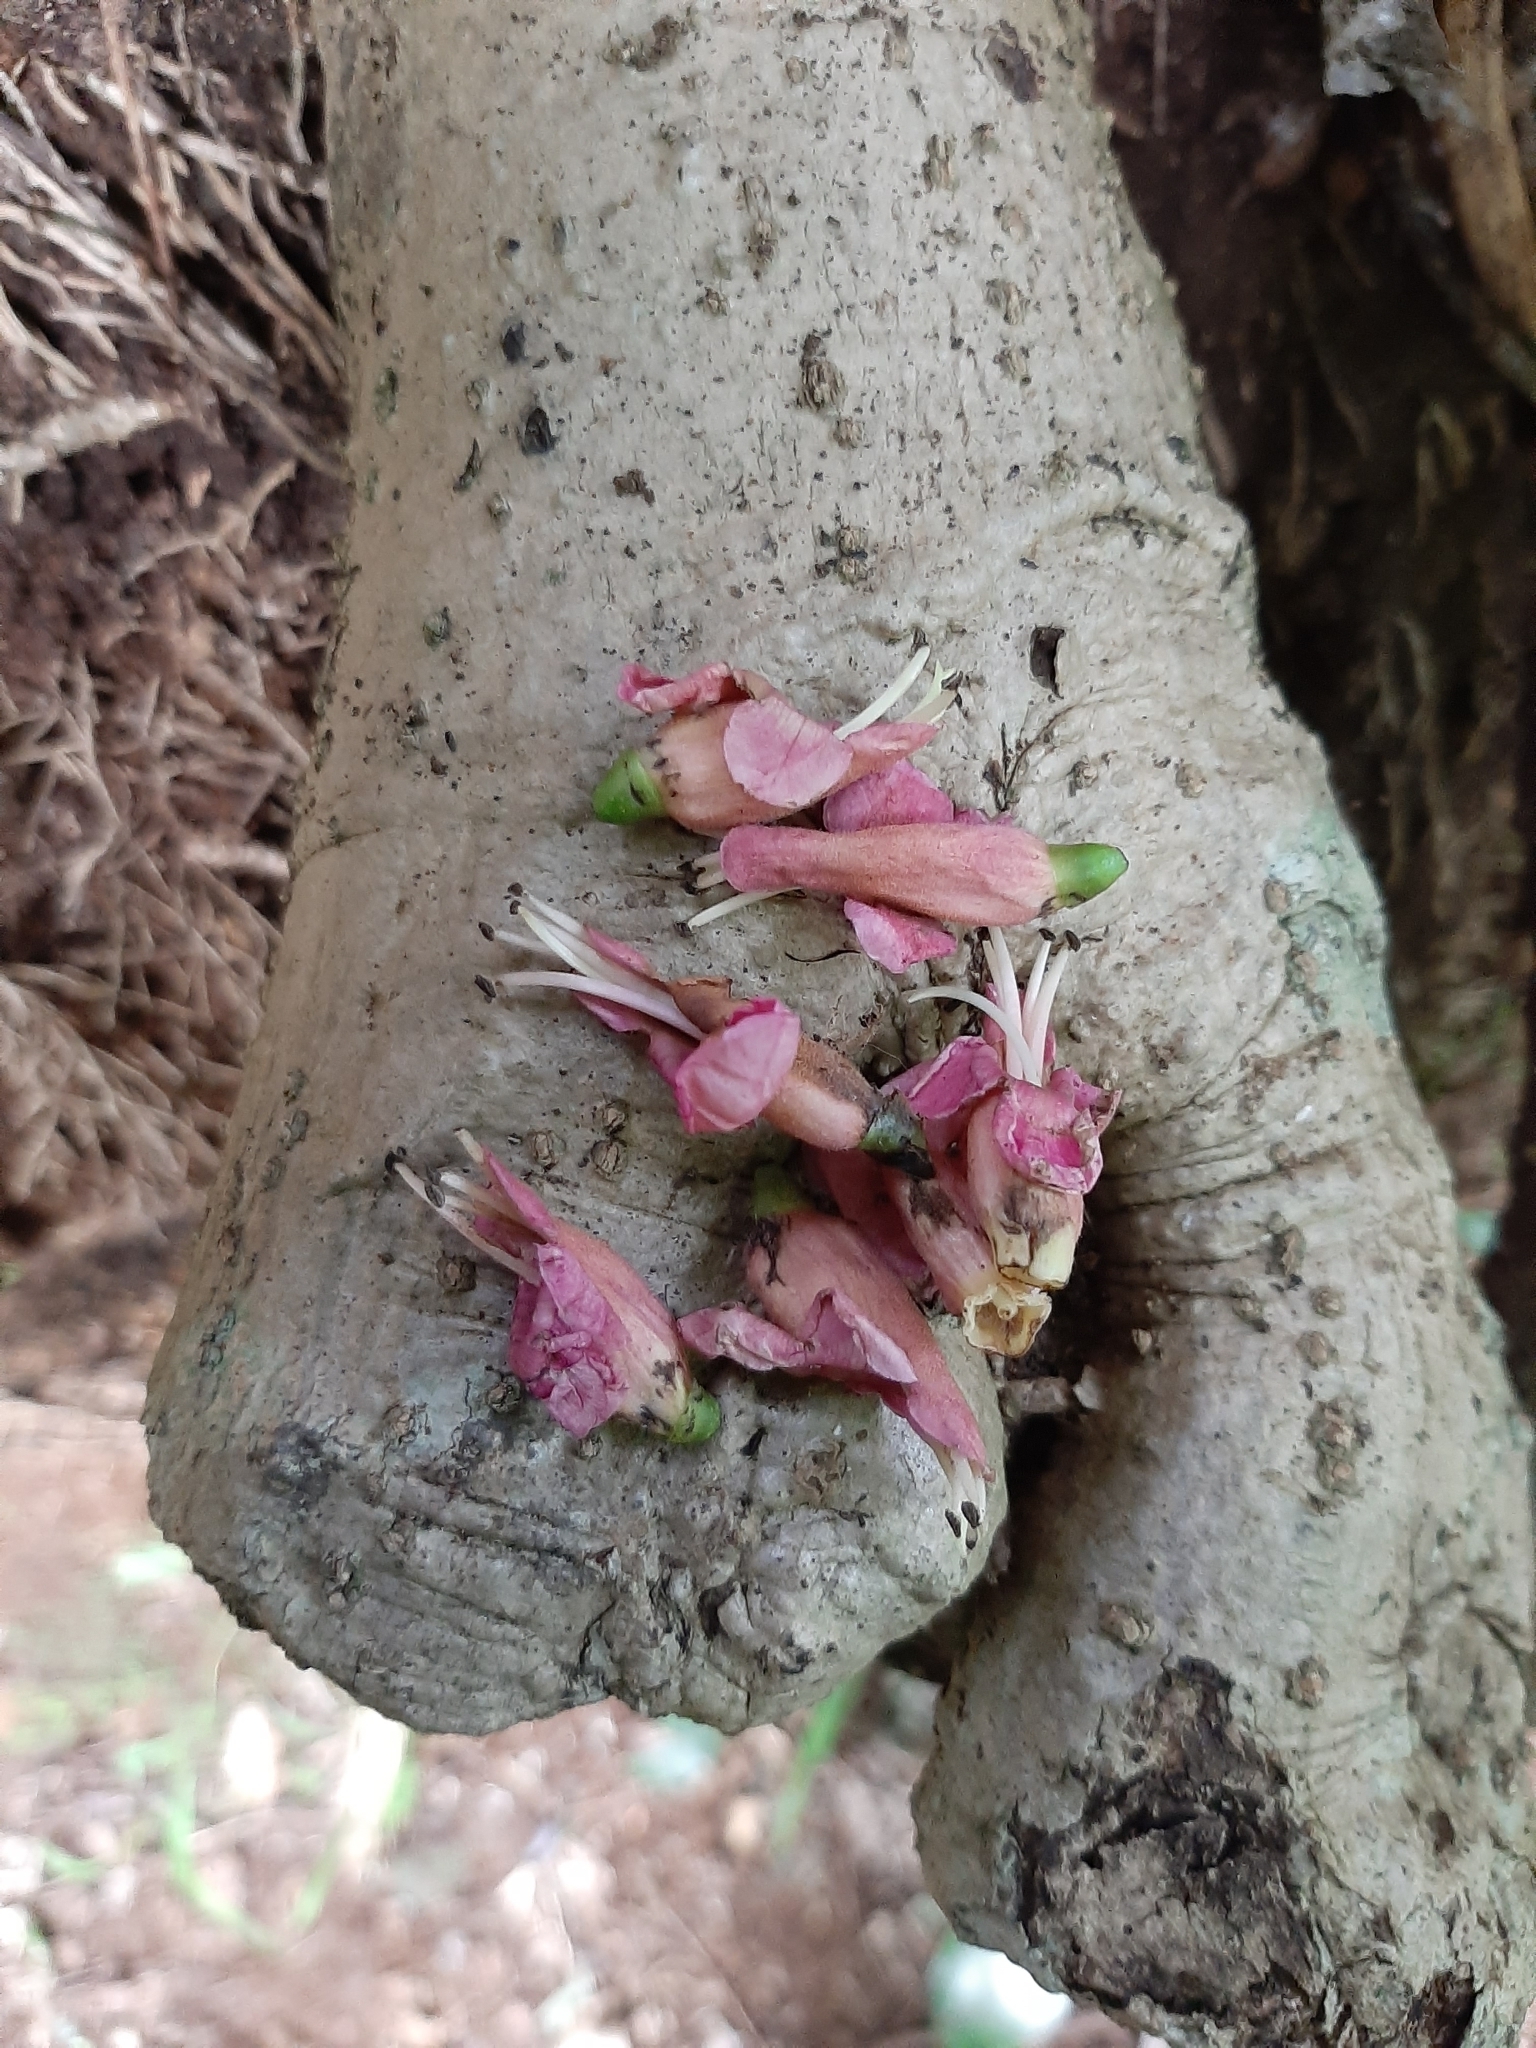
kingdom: Plantae
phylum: Tracheophyta
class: Magnoliopsida
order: Lamiales
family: Lamiaceae
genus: Vitex
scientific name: Vitex lucens
